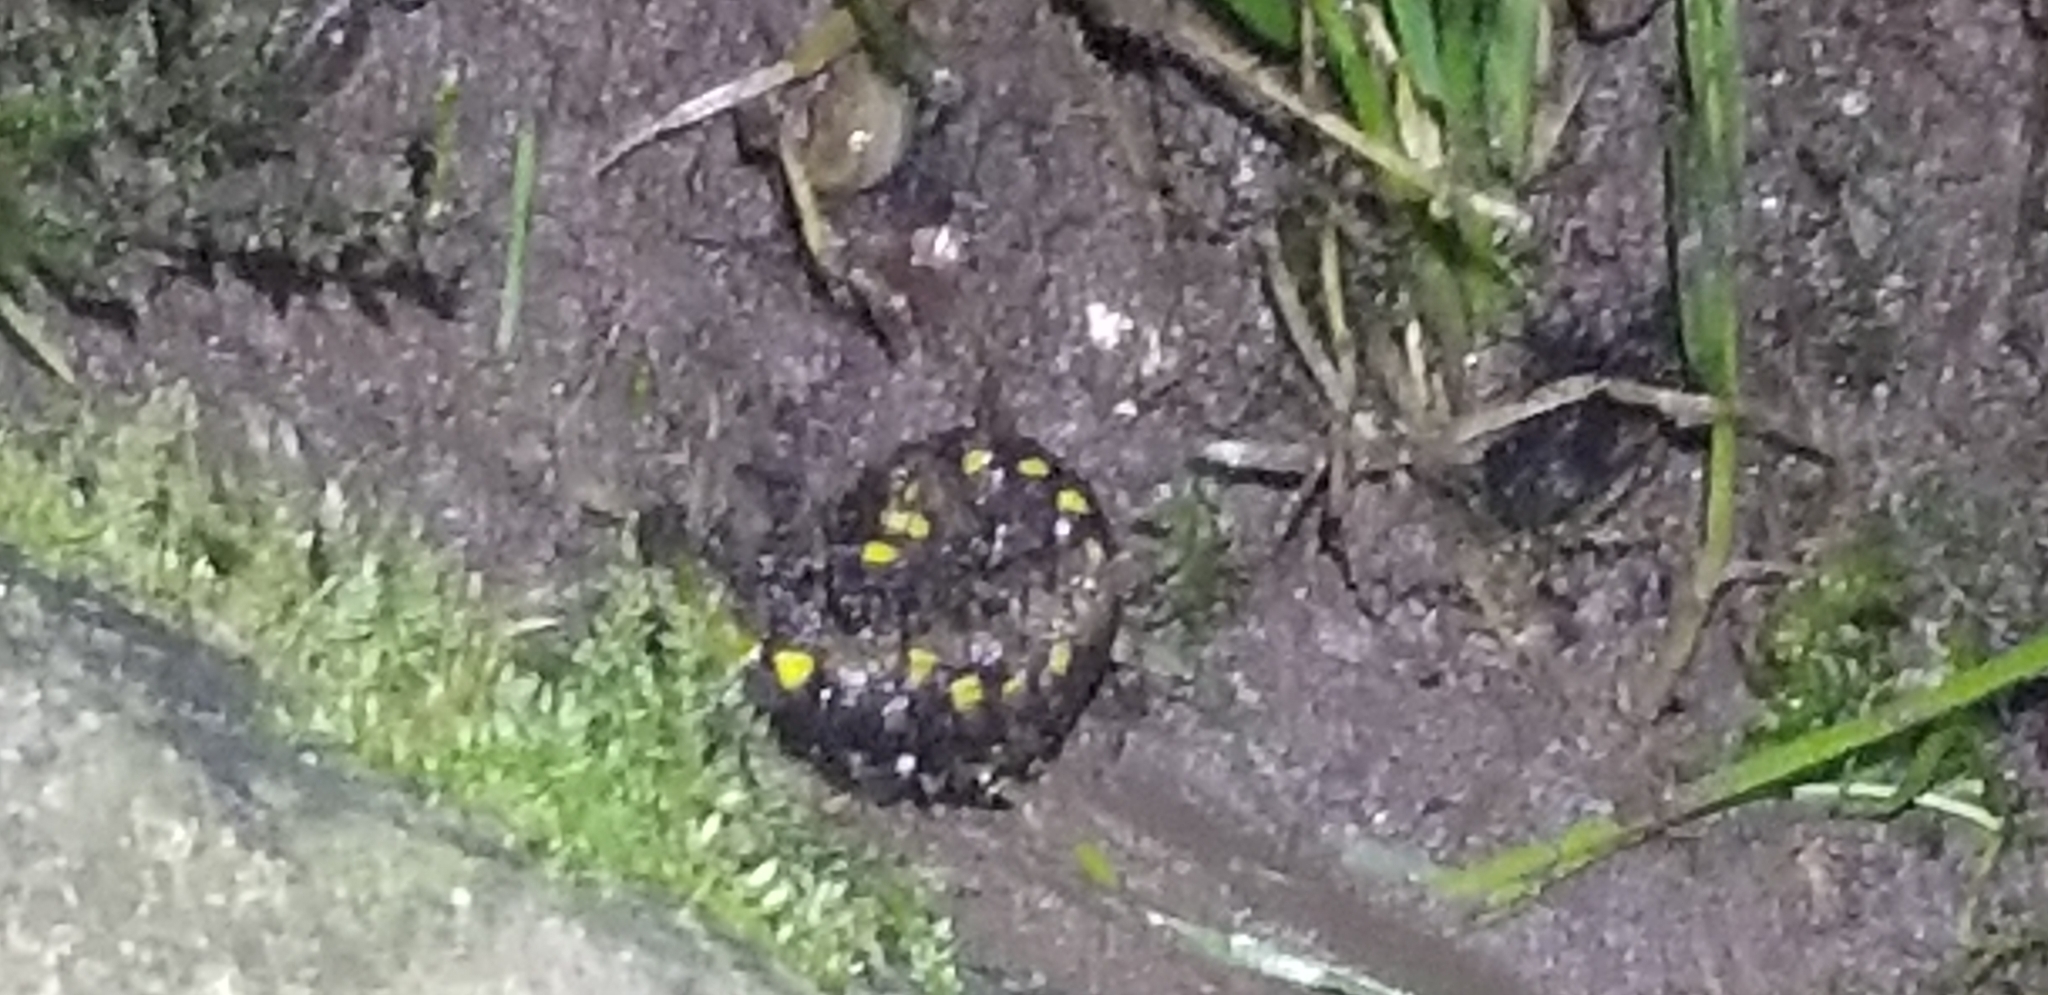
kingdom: Animalia
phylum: Arthropoda
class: Diplopoda
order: Polydesmida
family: Xystodesmidae
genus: Harpaphe
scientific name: Harpaphe haydeniana
